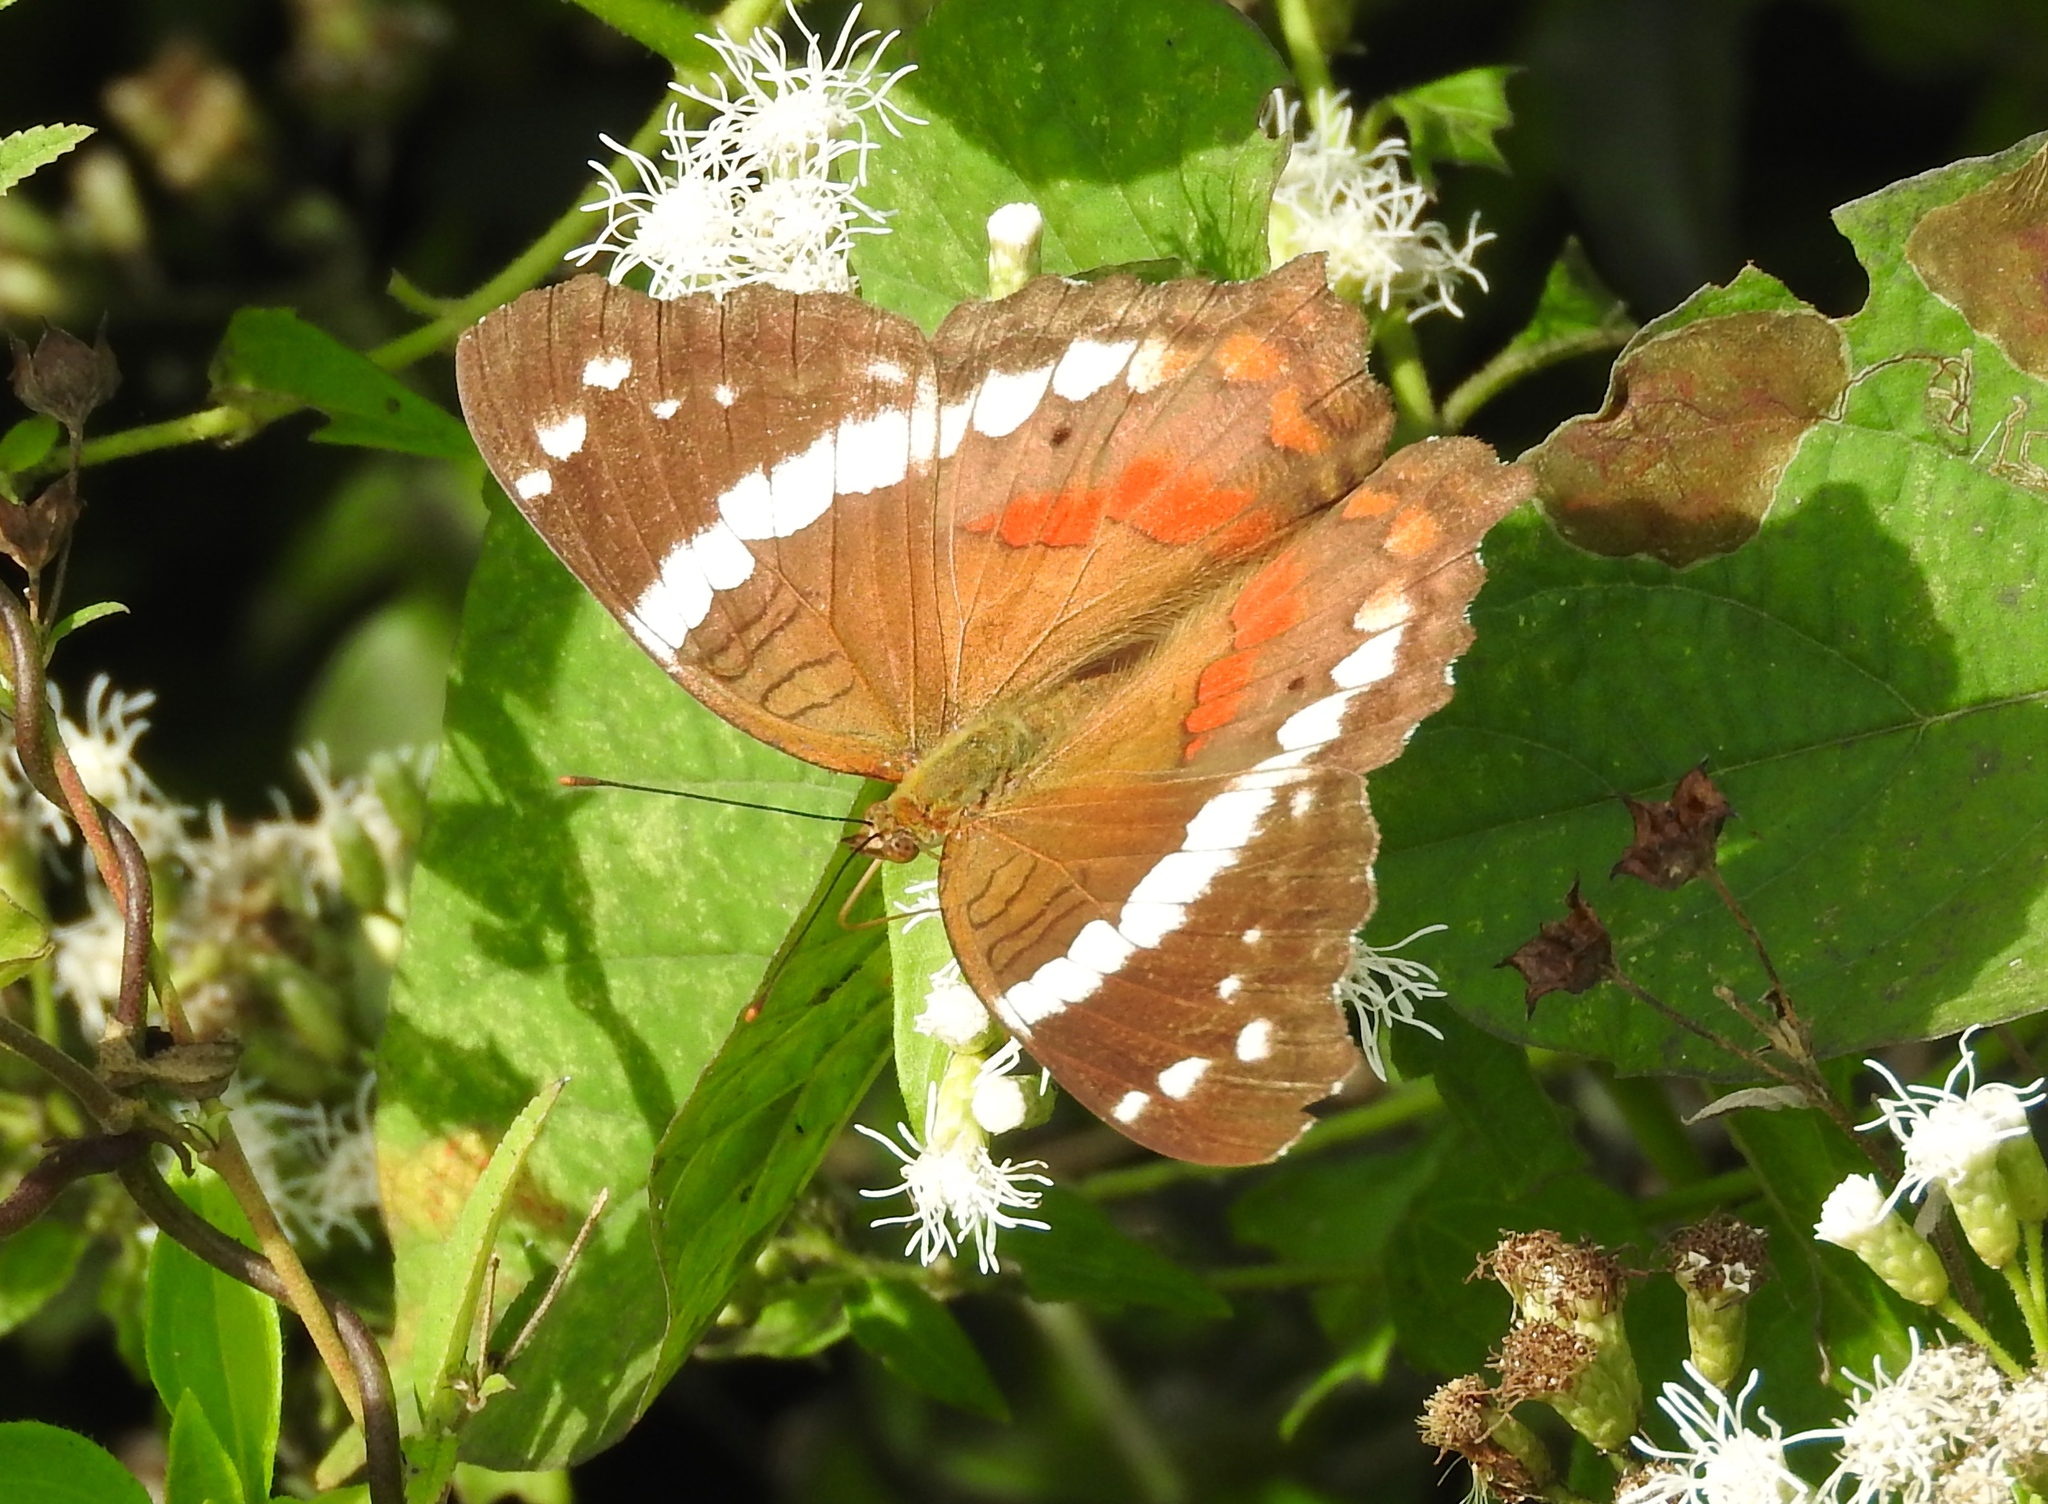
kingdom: Animalia
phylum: Arthropoda
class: Insecta
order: Lepidoptera
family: Nymphalidae
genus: Anartia
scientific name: Anartia fatima
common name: Banded peacock
